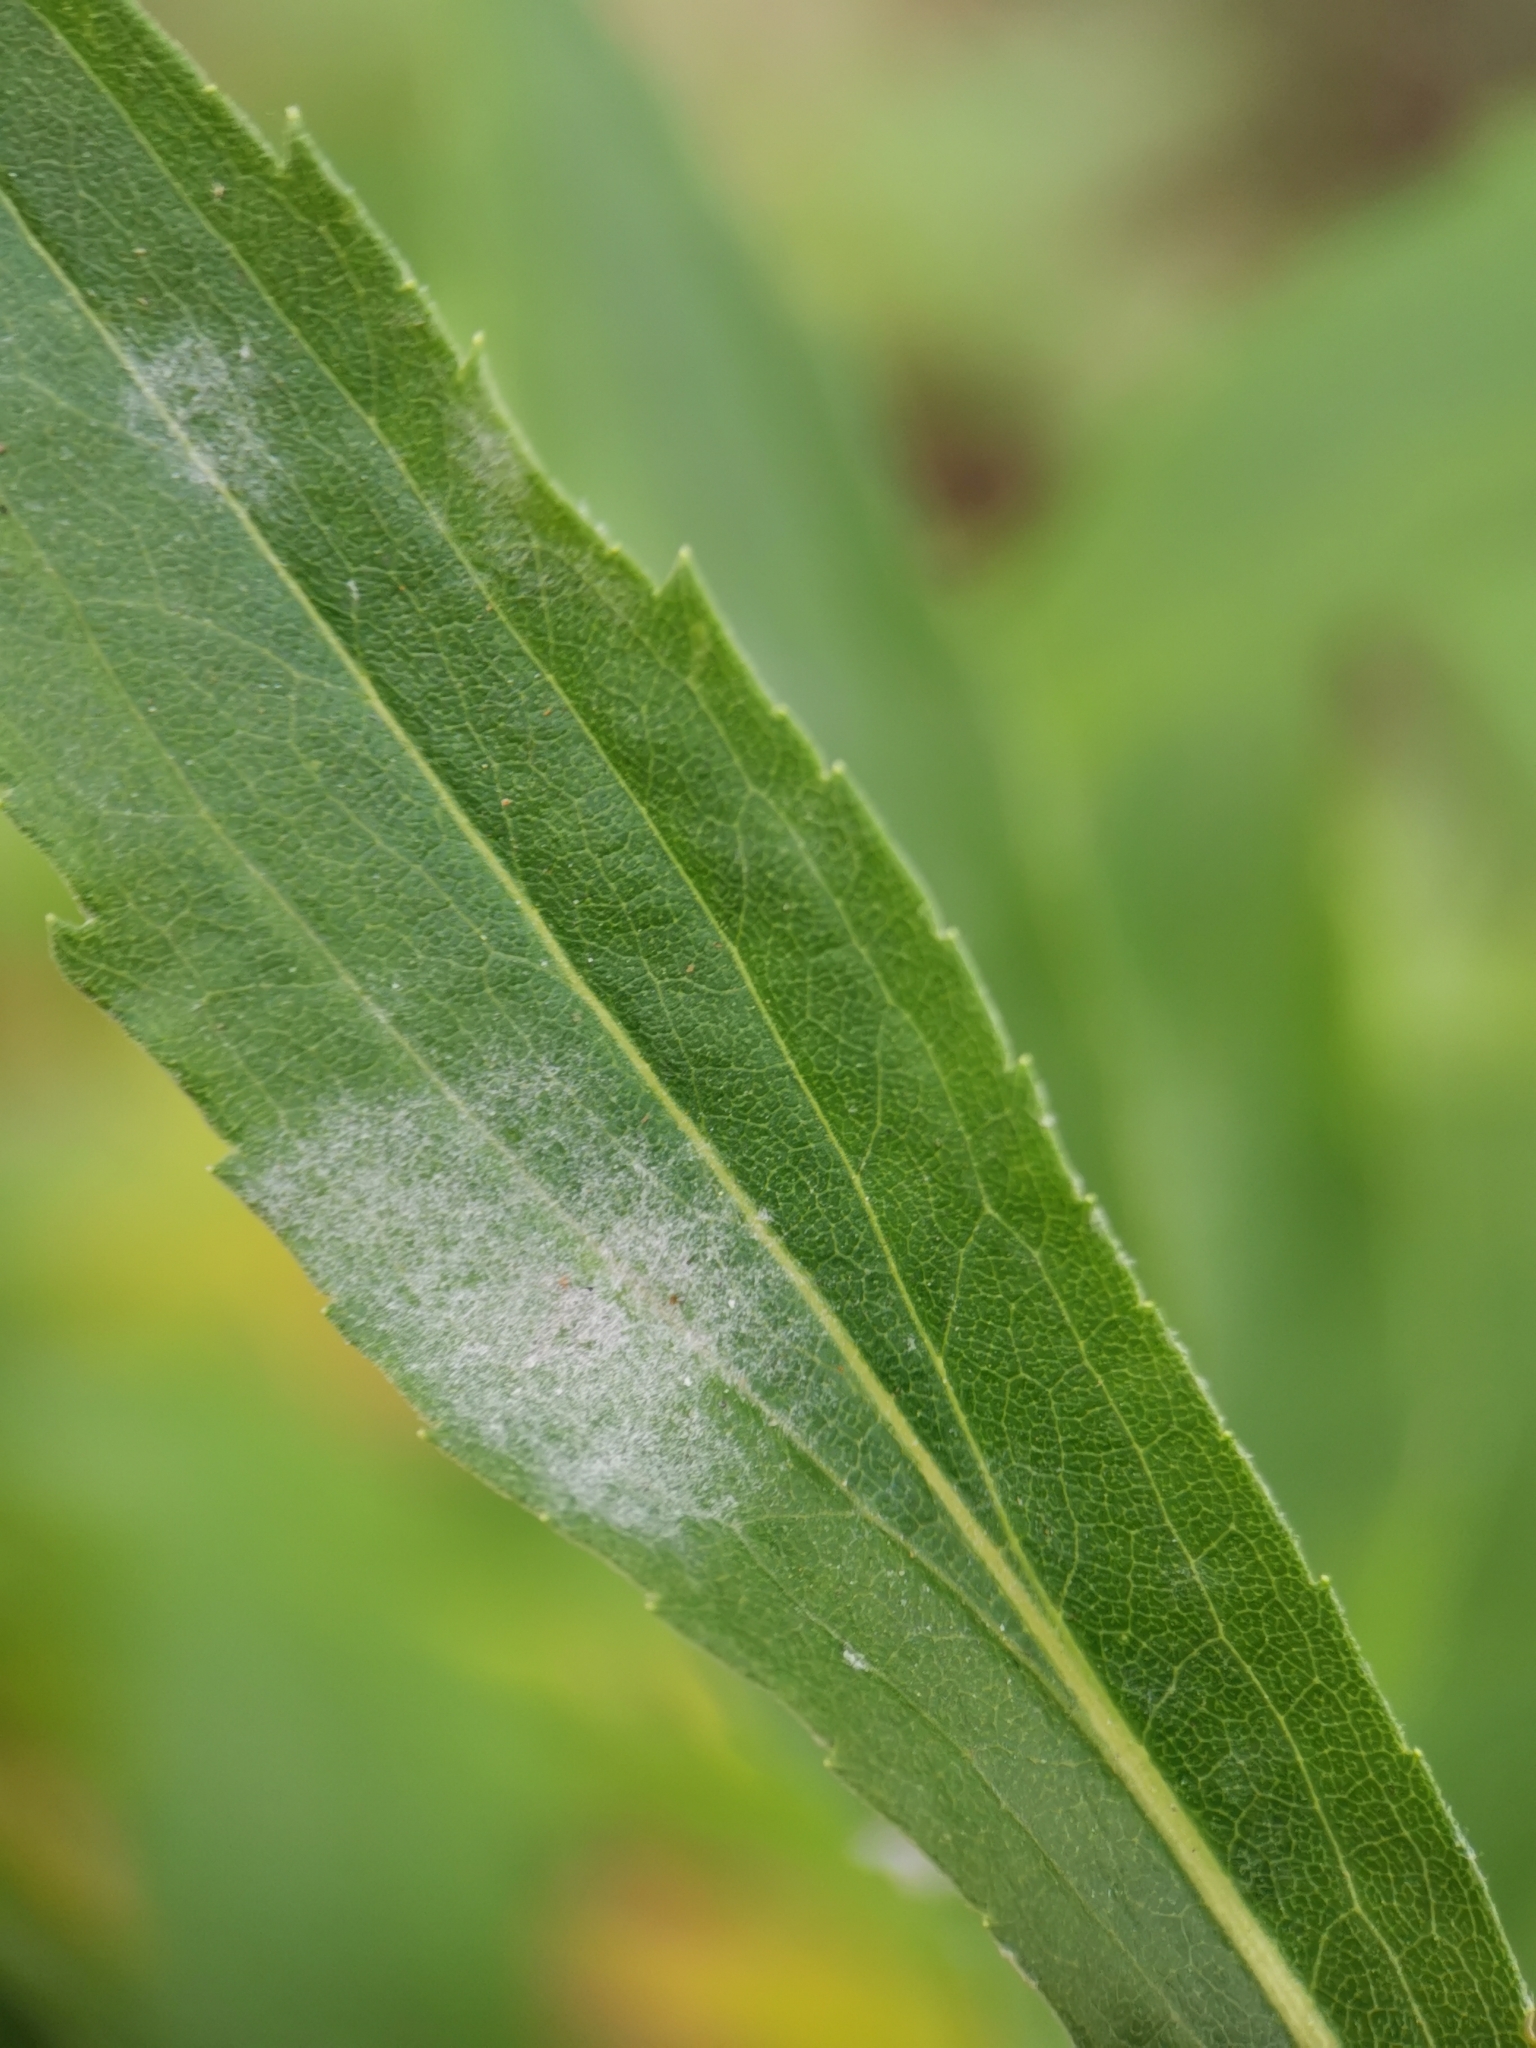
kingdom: Fungi
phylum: Ascomycota
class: Leotiomycetes
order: Helotiales
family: Erysiphaceae
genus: Golovinomyces
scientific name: Golovinomyces asterum
